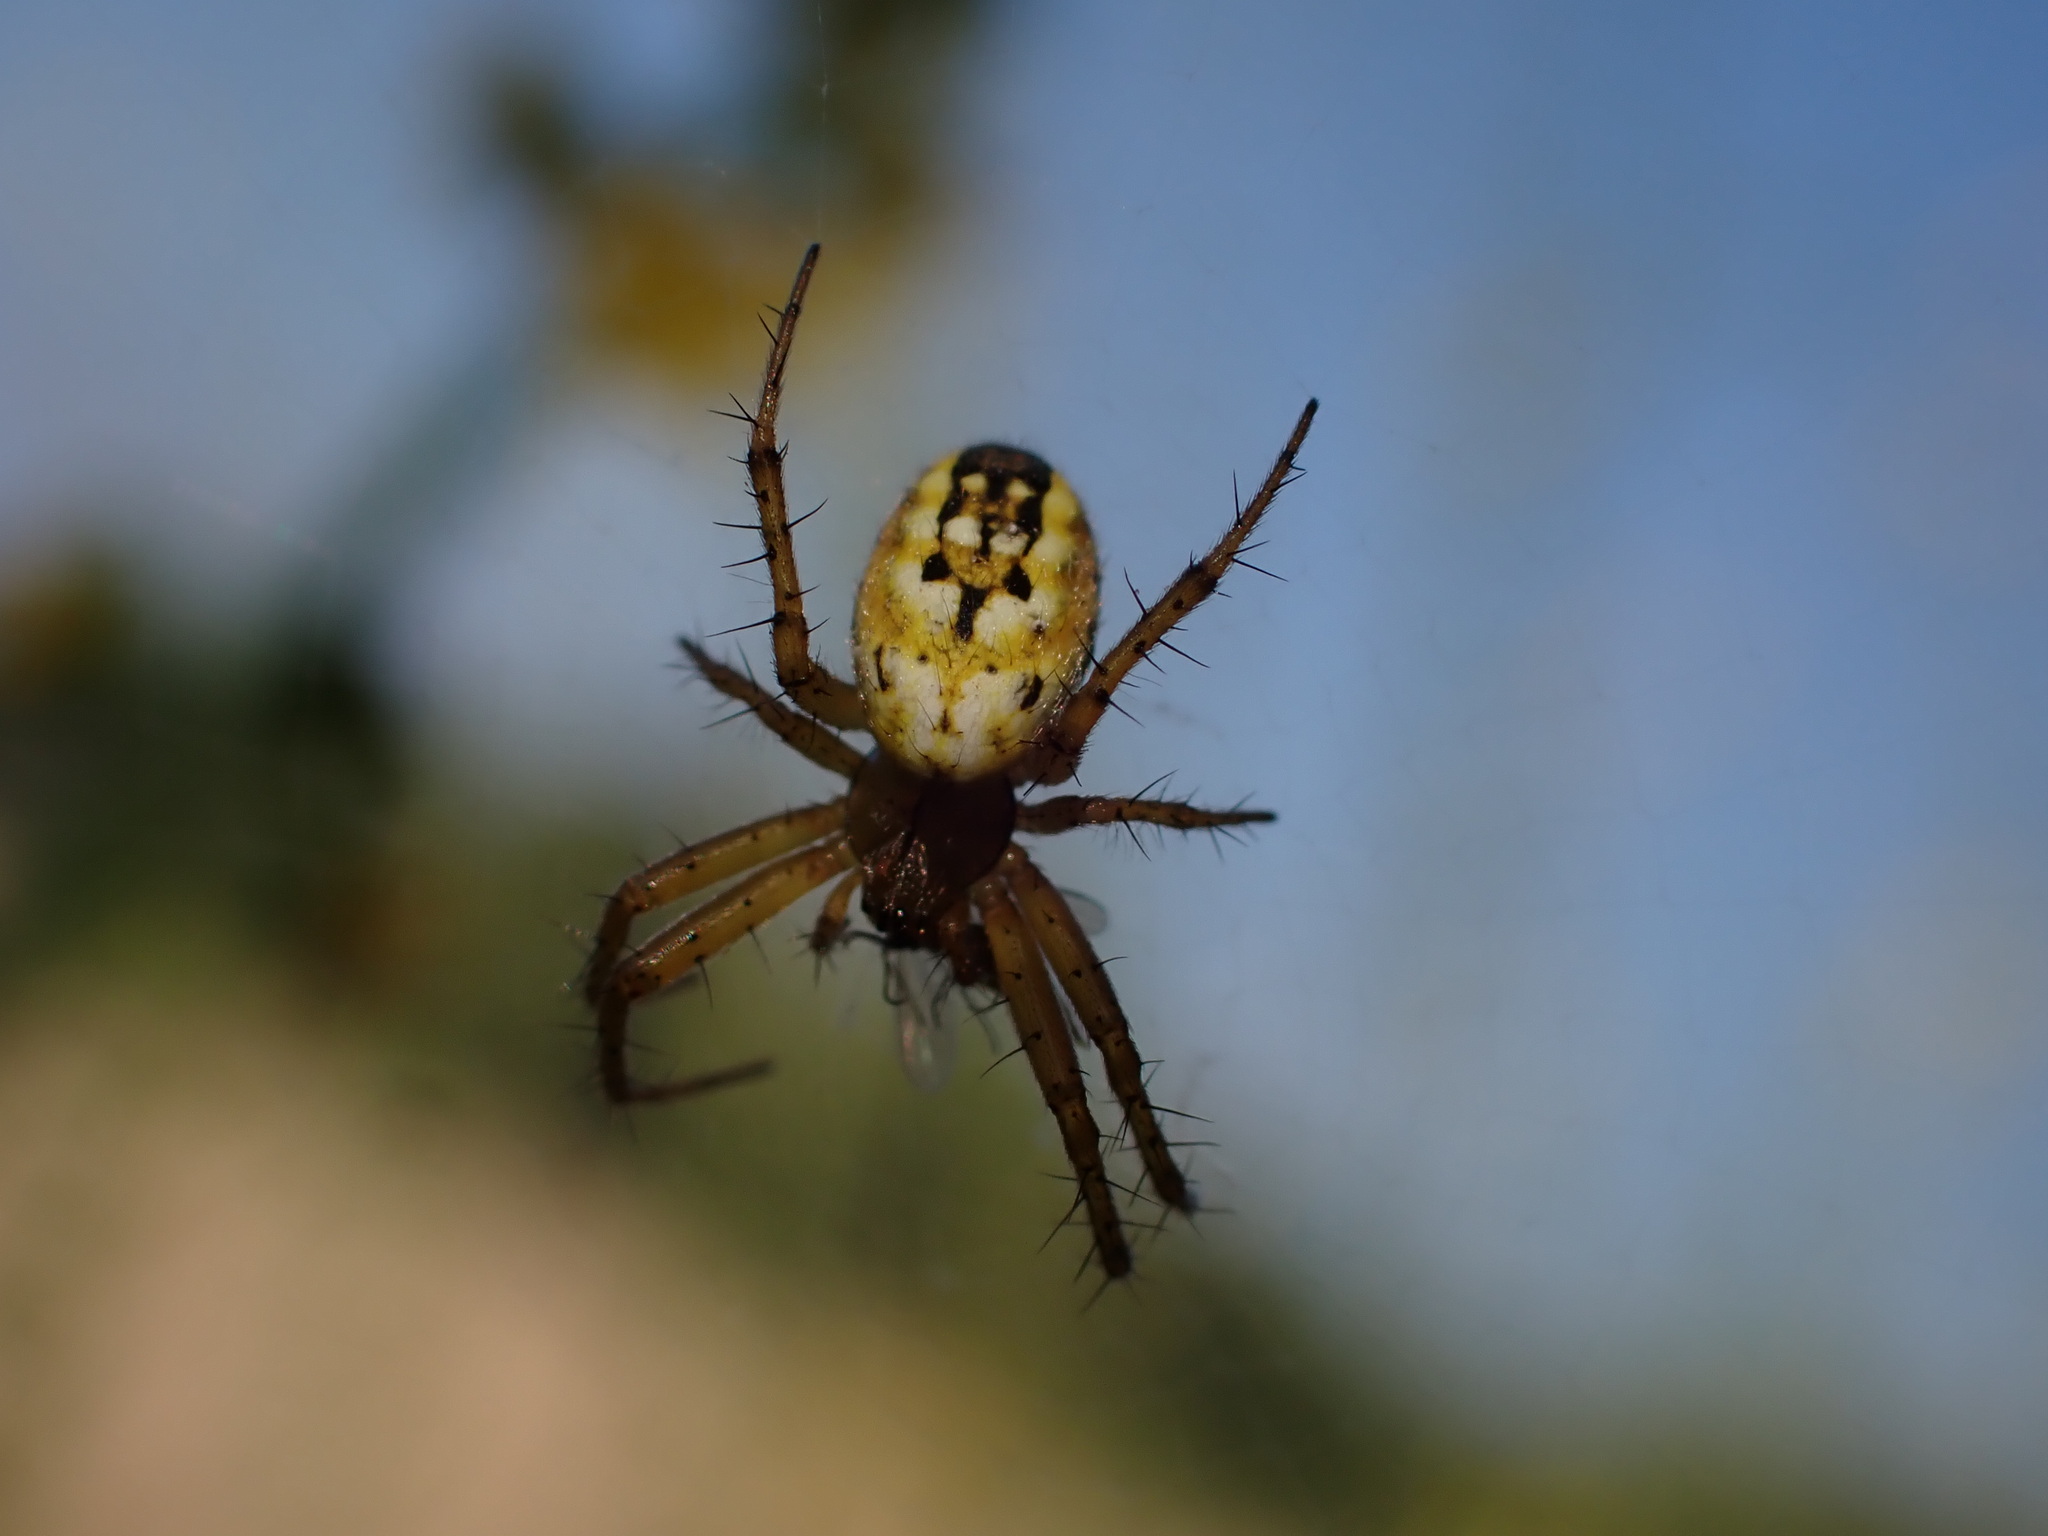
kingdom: Animalia
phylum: Arthropoda
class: Arachnida
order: Araneae
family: Araneidae
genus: Mangora
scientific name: Mangora acalypha
